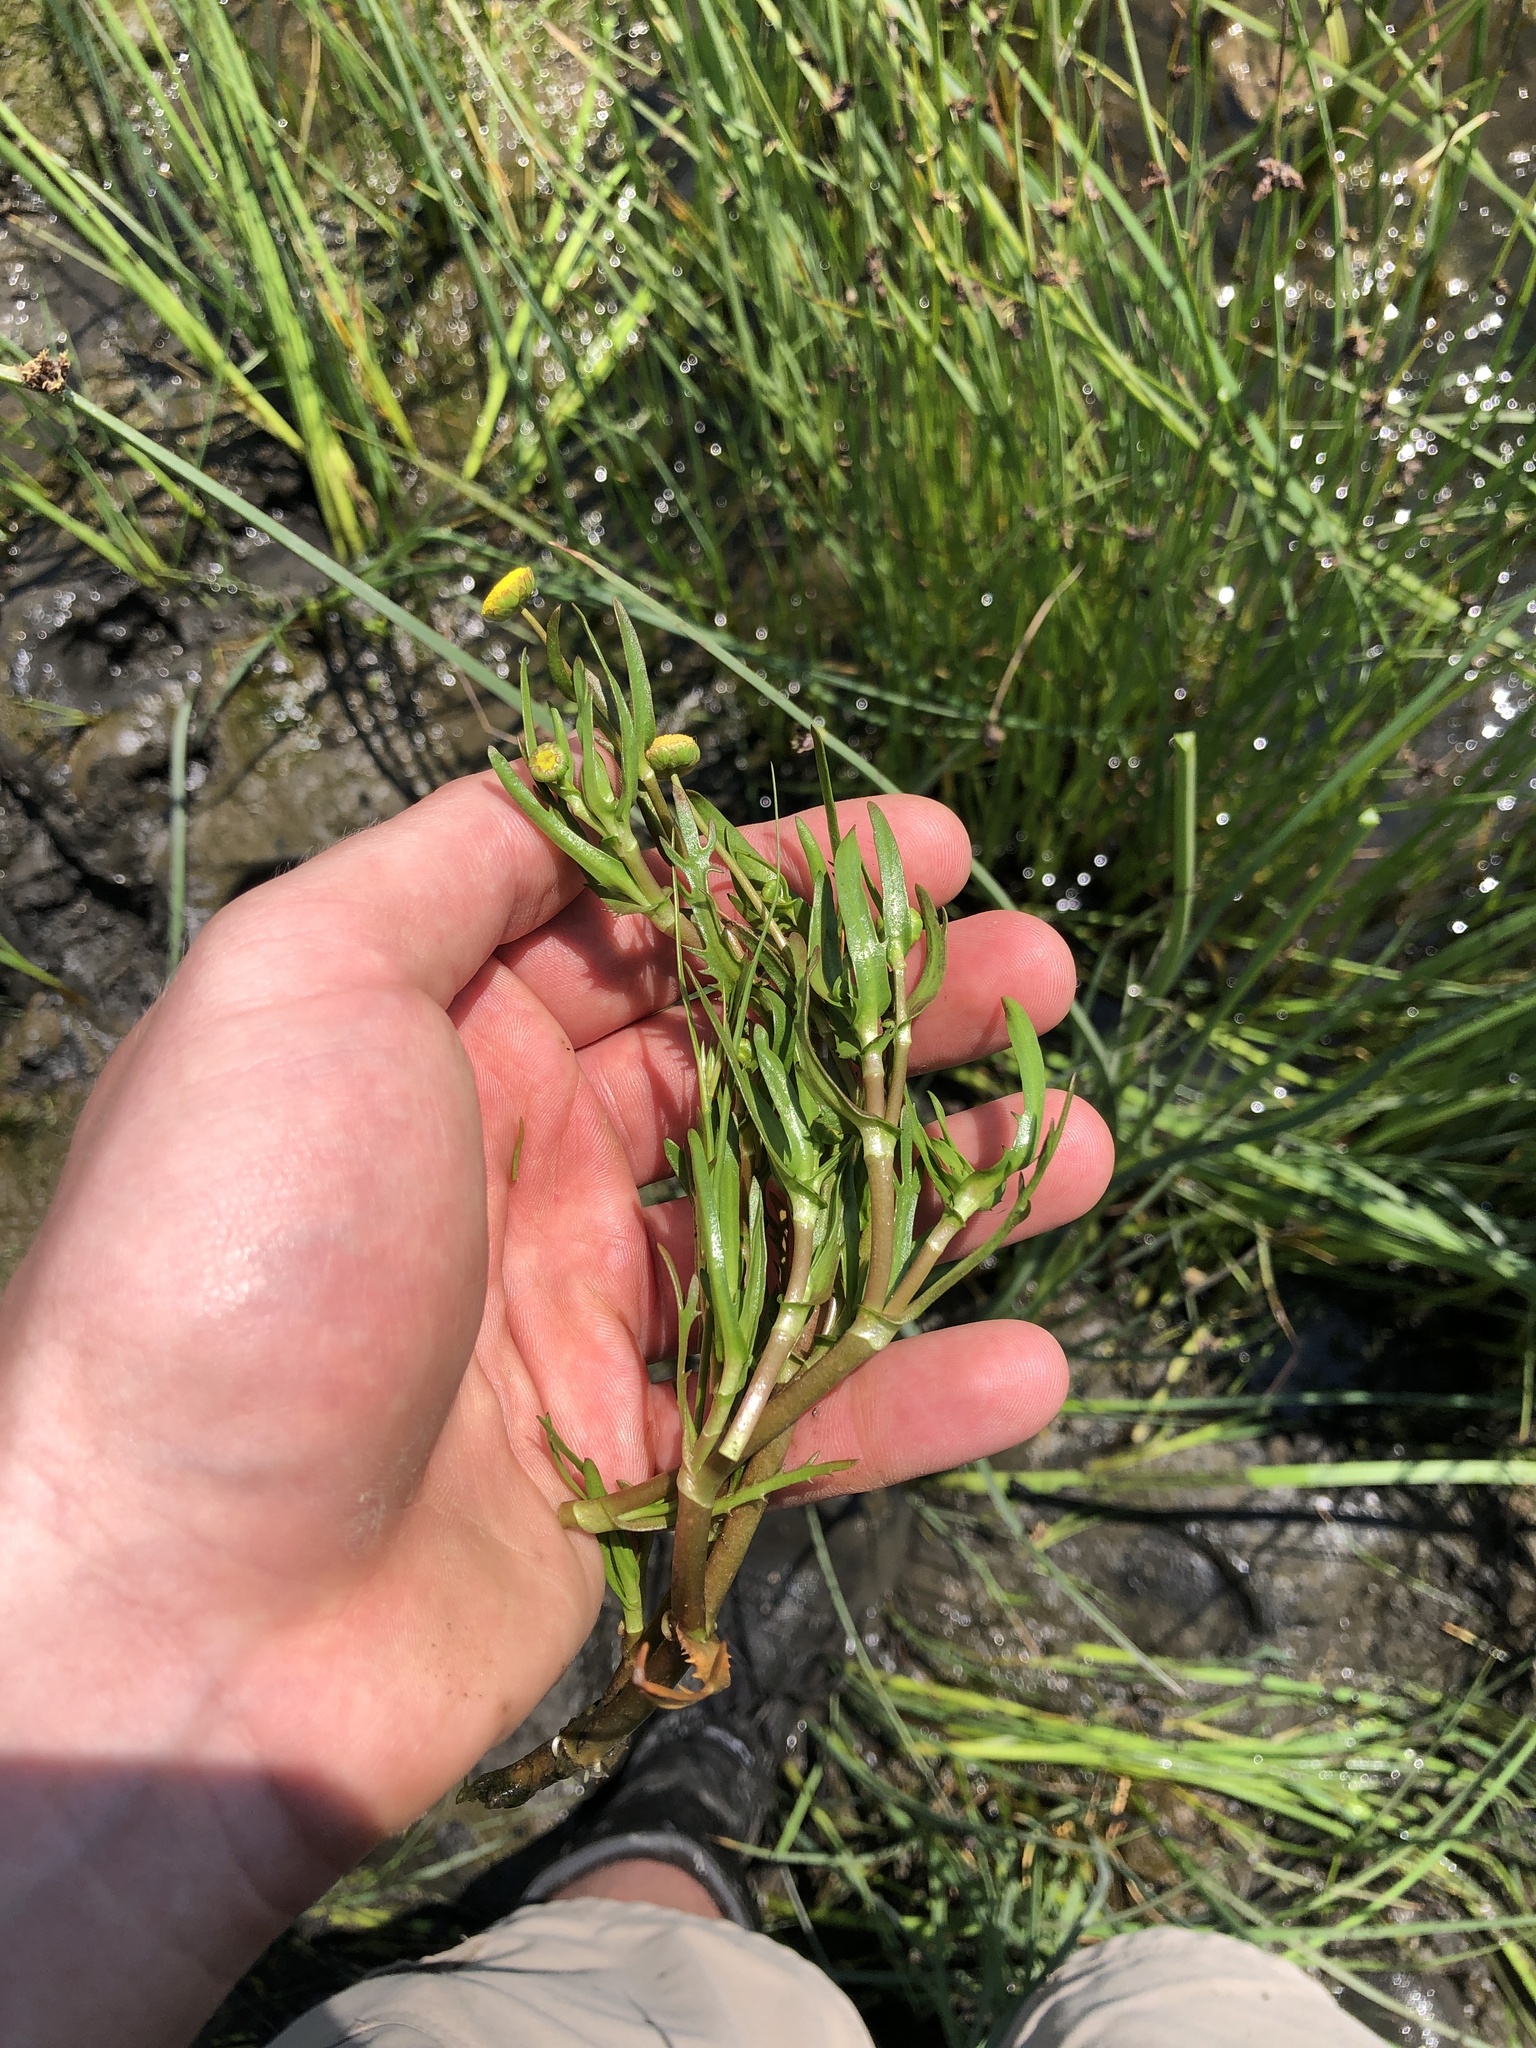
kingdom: Plantae
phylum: Tracheophyta
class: Magnoliopsida
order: Asterales
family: Asteraceae
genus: Cotula
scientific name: Cotula coronopifolia
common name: Buttonweed
